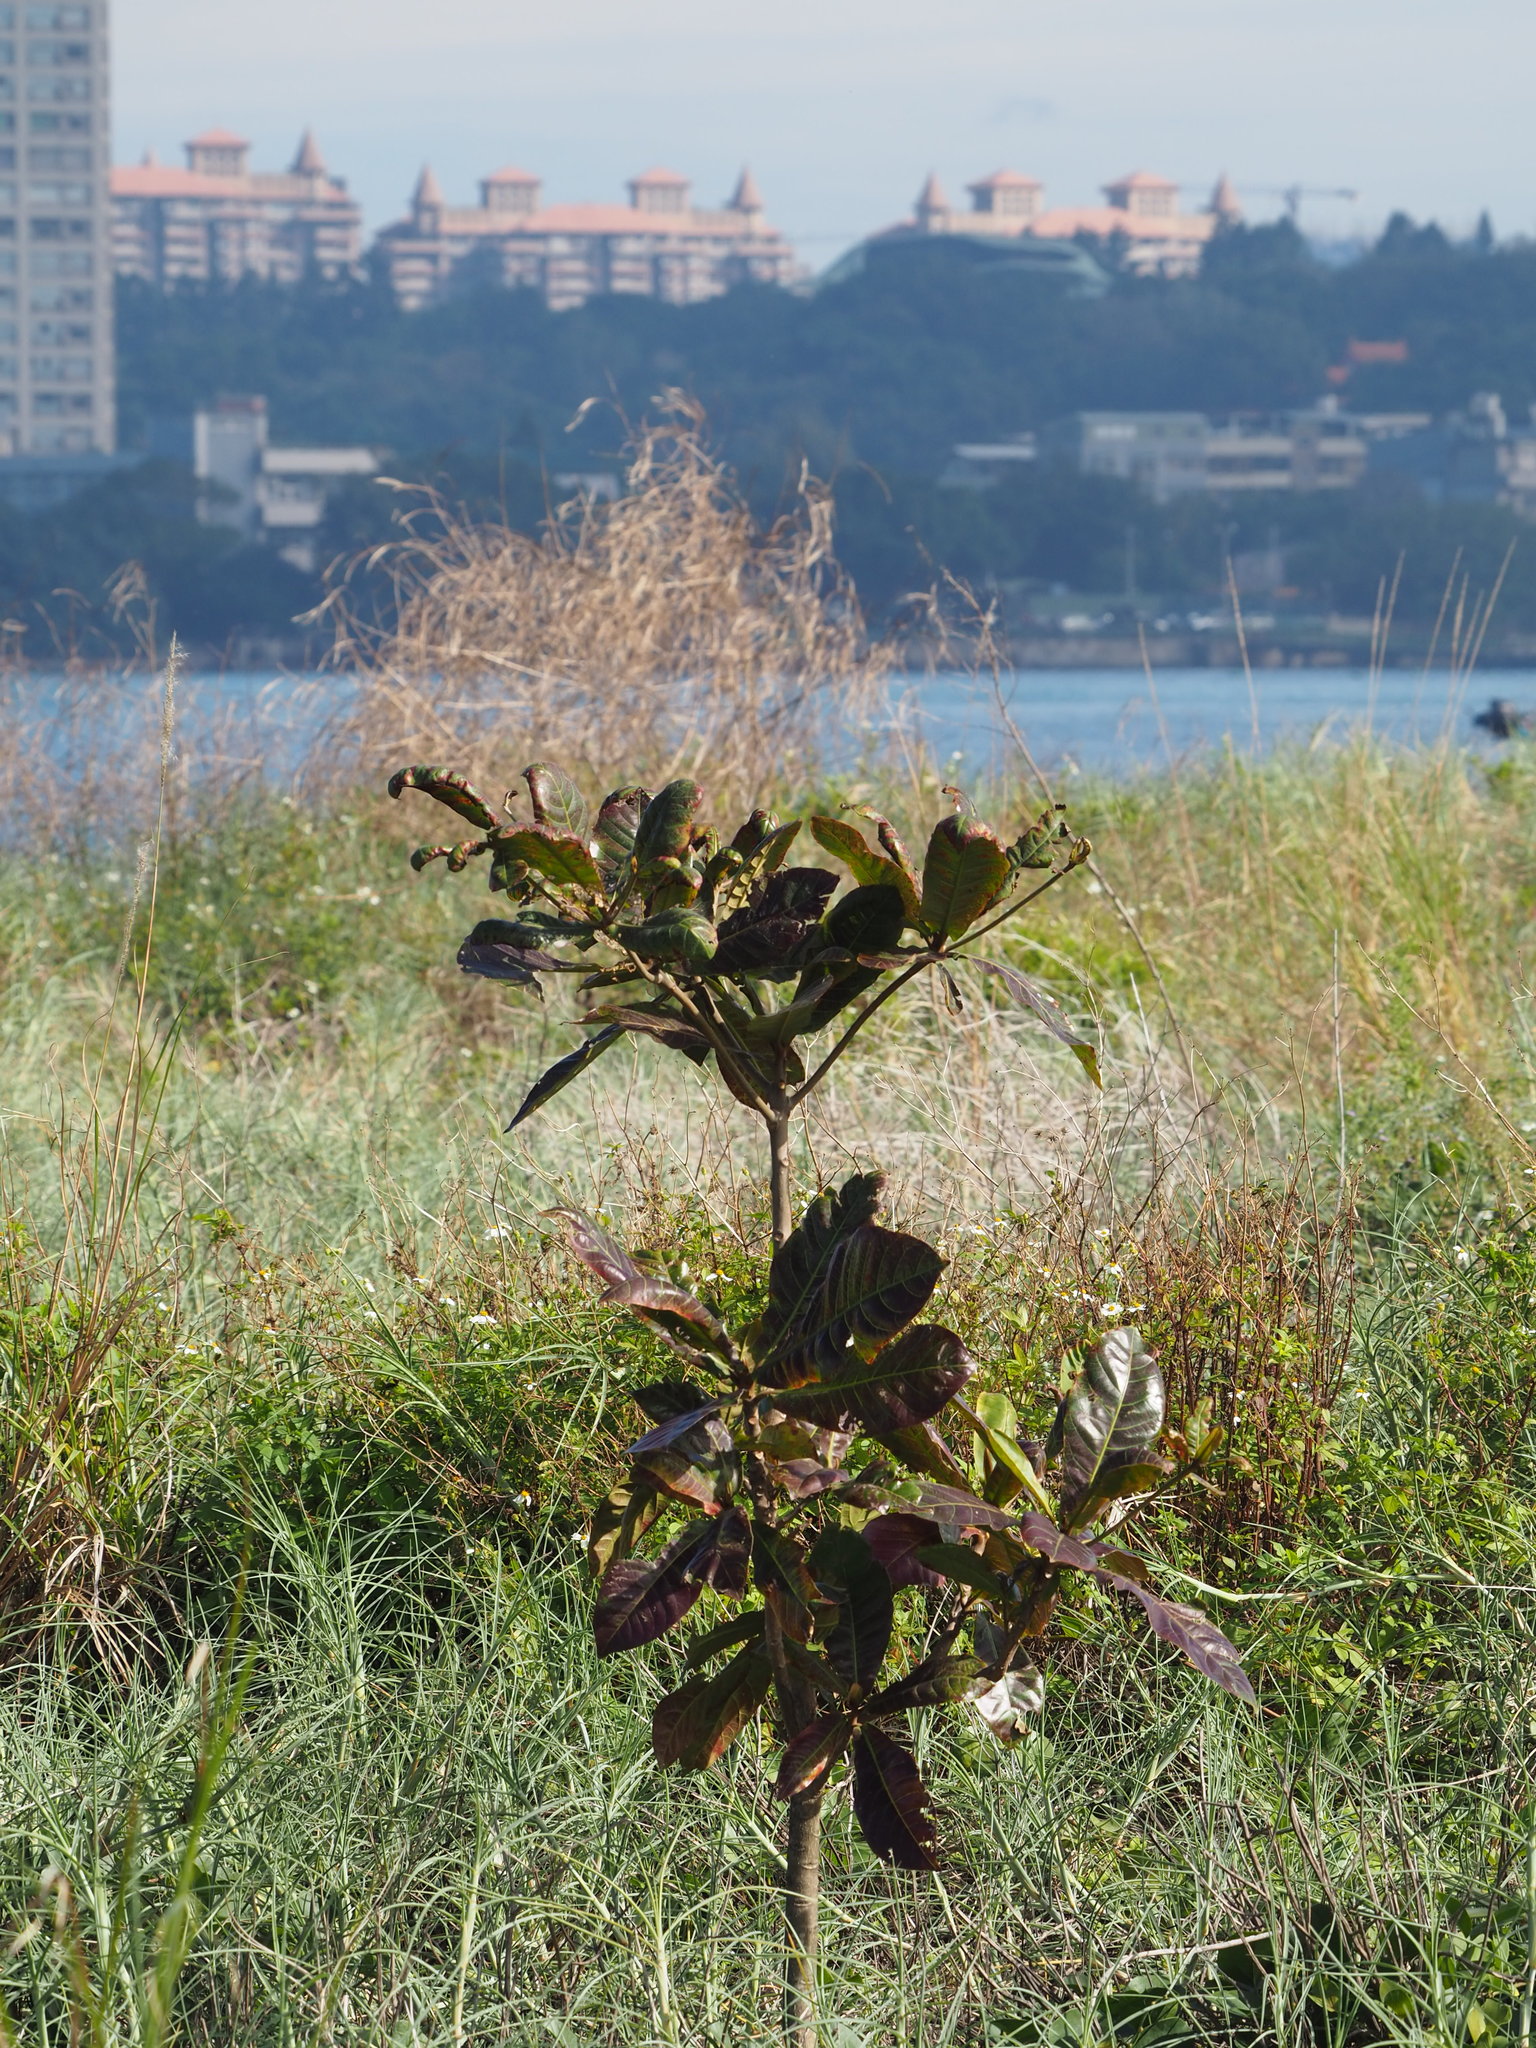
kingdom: Plantae
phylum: Tracheophyta
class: Magnoliopsida
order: Myrtales
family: Combretaceae
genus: Terminalia
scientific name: Terminalia catappa
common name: Tropical almond
